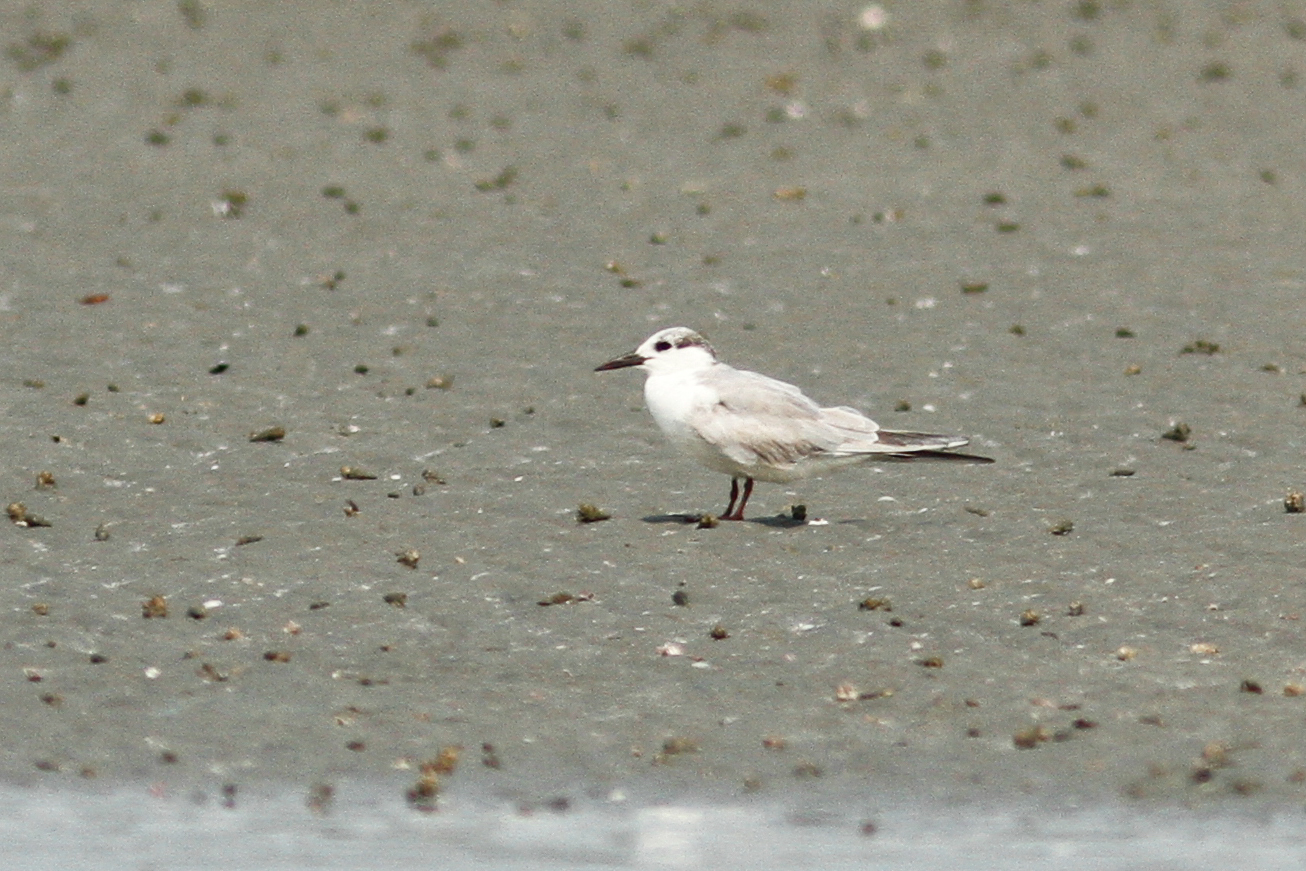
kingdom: Animalia
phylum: Chordata
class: Aves
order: Charadriiformes
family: Laridae
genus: Chlidonias
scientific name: Chlidonias hybrida
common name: Whiskered tern
